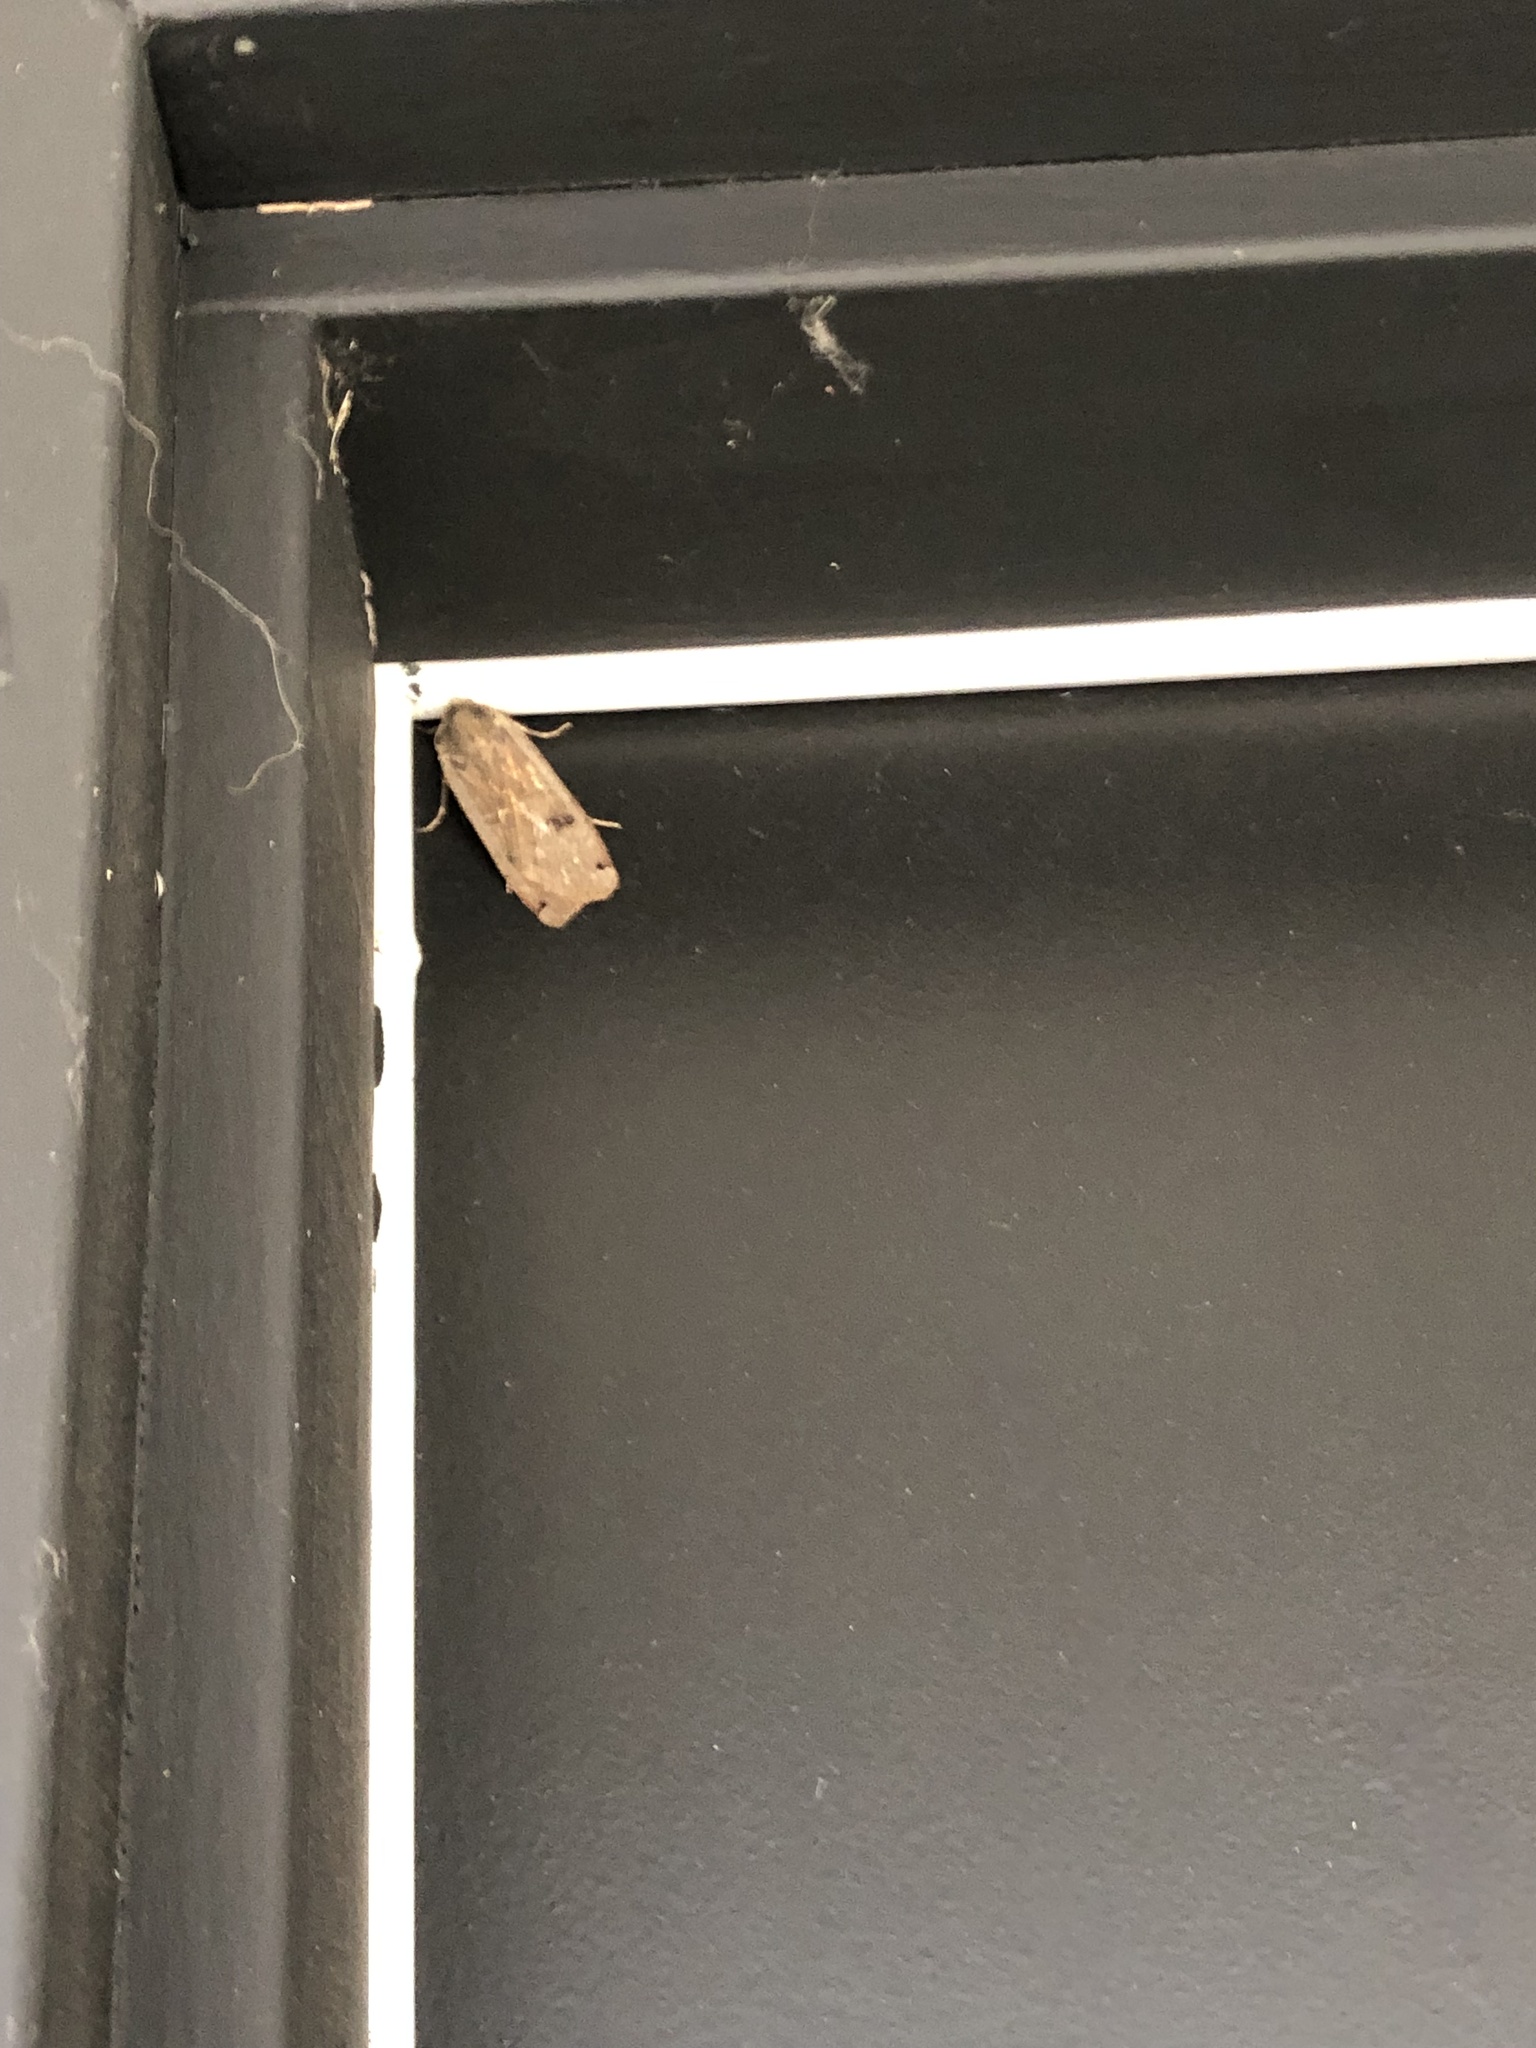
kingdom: Animalia
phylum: Arthropoda
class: Insecta
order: Lepidoptera
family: Noctuidae
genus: Noctua
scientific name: Noctua pronuba
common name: Large yellow underwing
